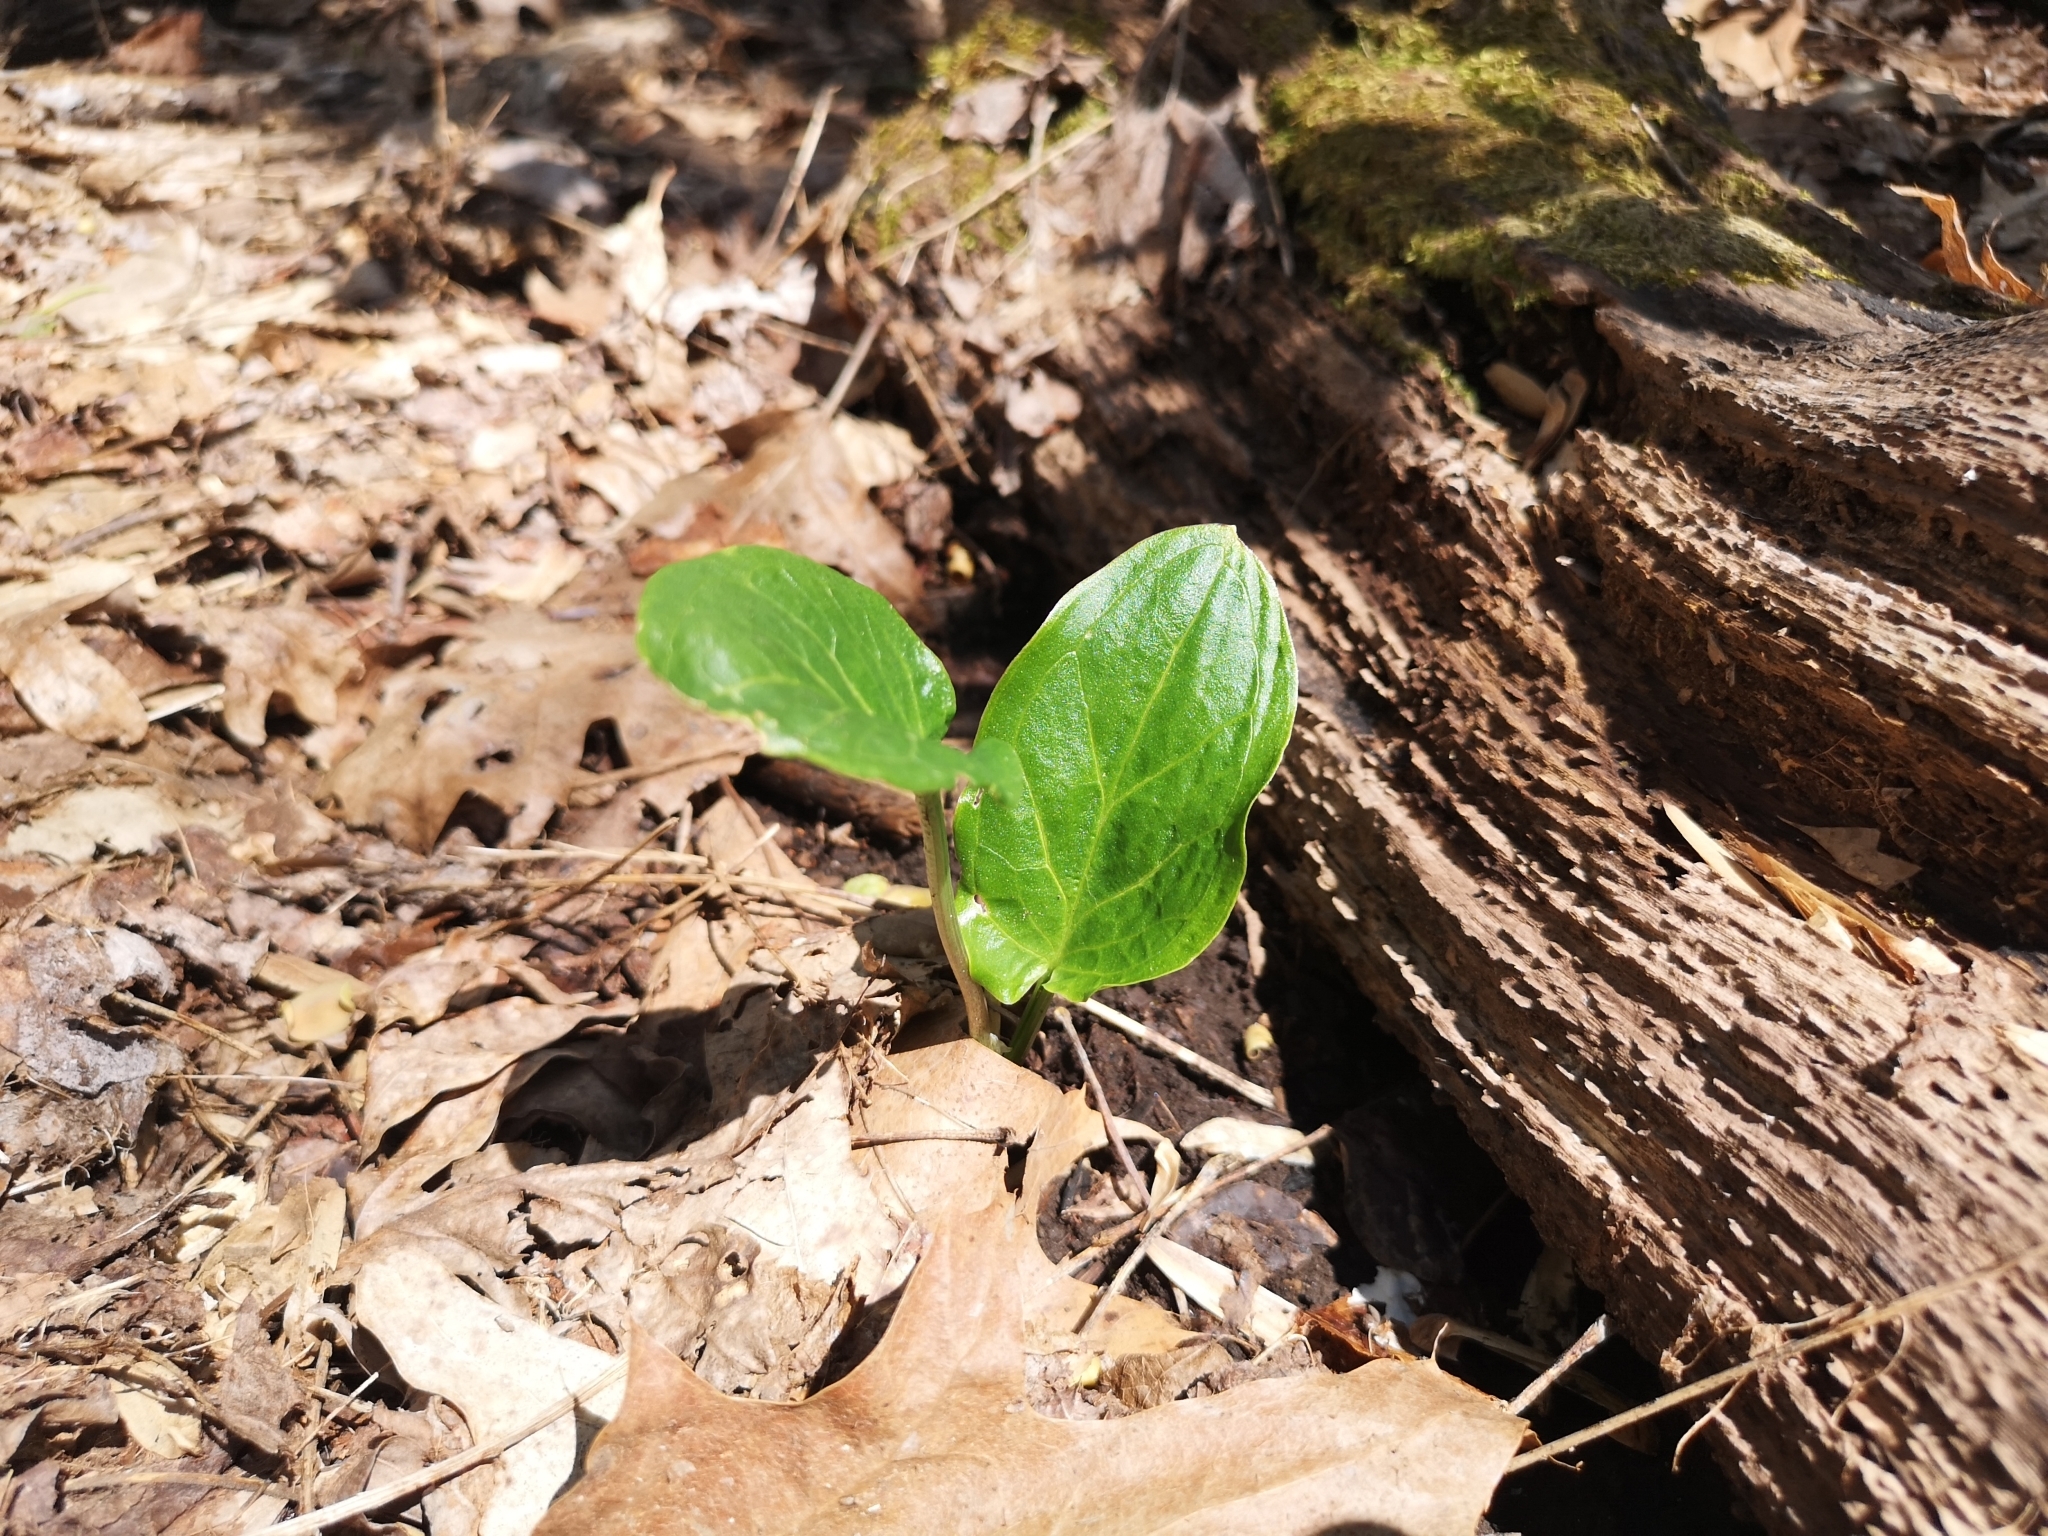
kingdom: Plantae
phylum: Tracheophyta
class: Liliopsida
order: Alismatales
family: Araceae
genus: Arum
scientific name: Arum italicum
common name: Italian lords-and-ladies
